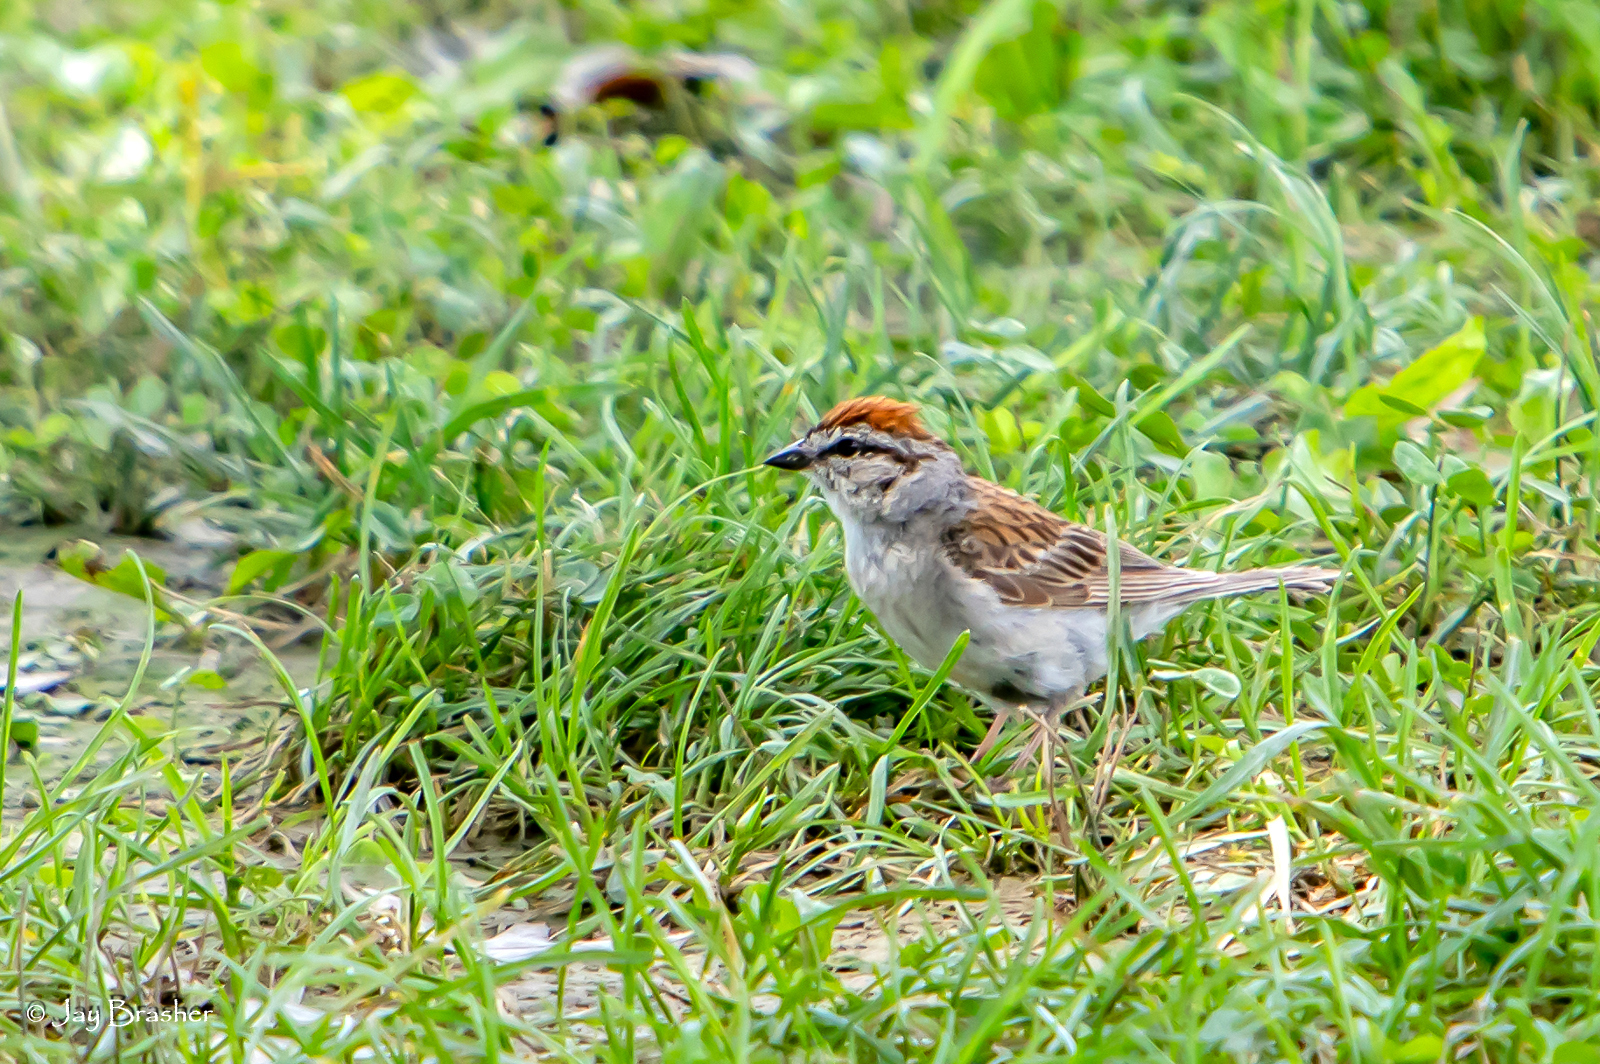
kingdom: Animalia
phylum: Chordata
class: Aves
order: Passeriformes
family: Passerellidae
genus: Spizella
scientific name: Spizella passerina
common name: Chipping sparrow
